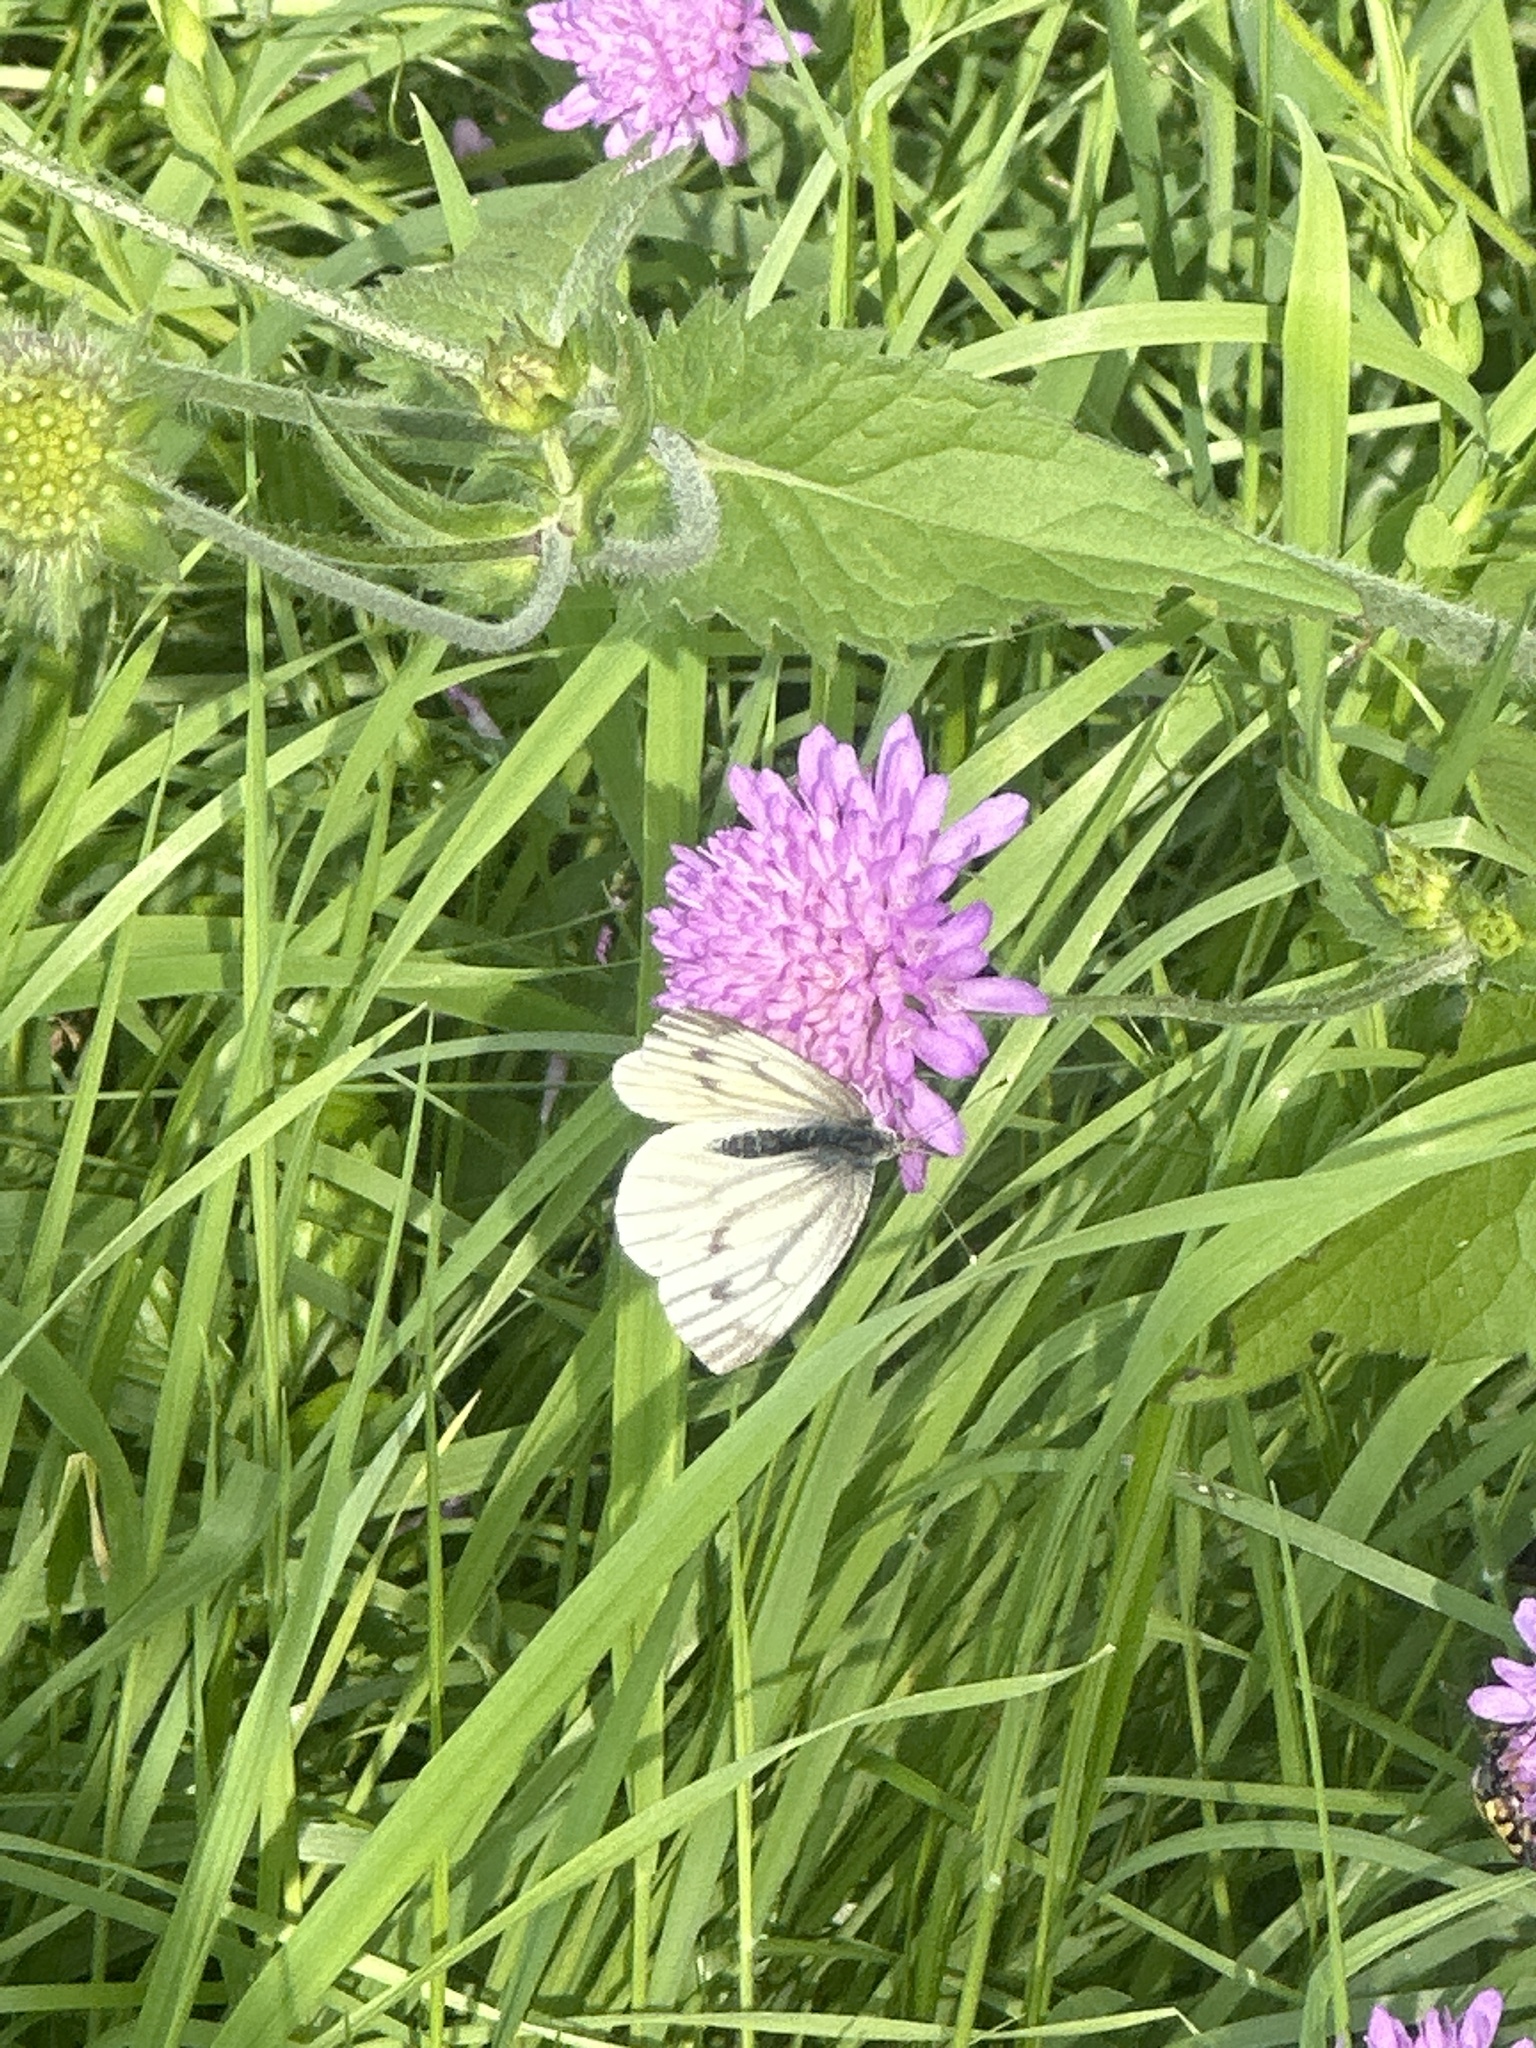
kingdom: Animalia
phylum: Arthropoda
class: Insecta
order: Lepidoptera
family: Pieridae
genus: Pieris
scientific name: Pieris napi
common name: Green-veined white
